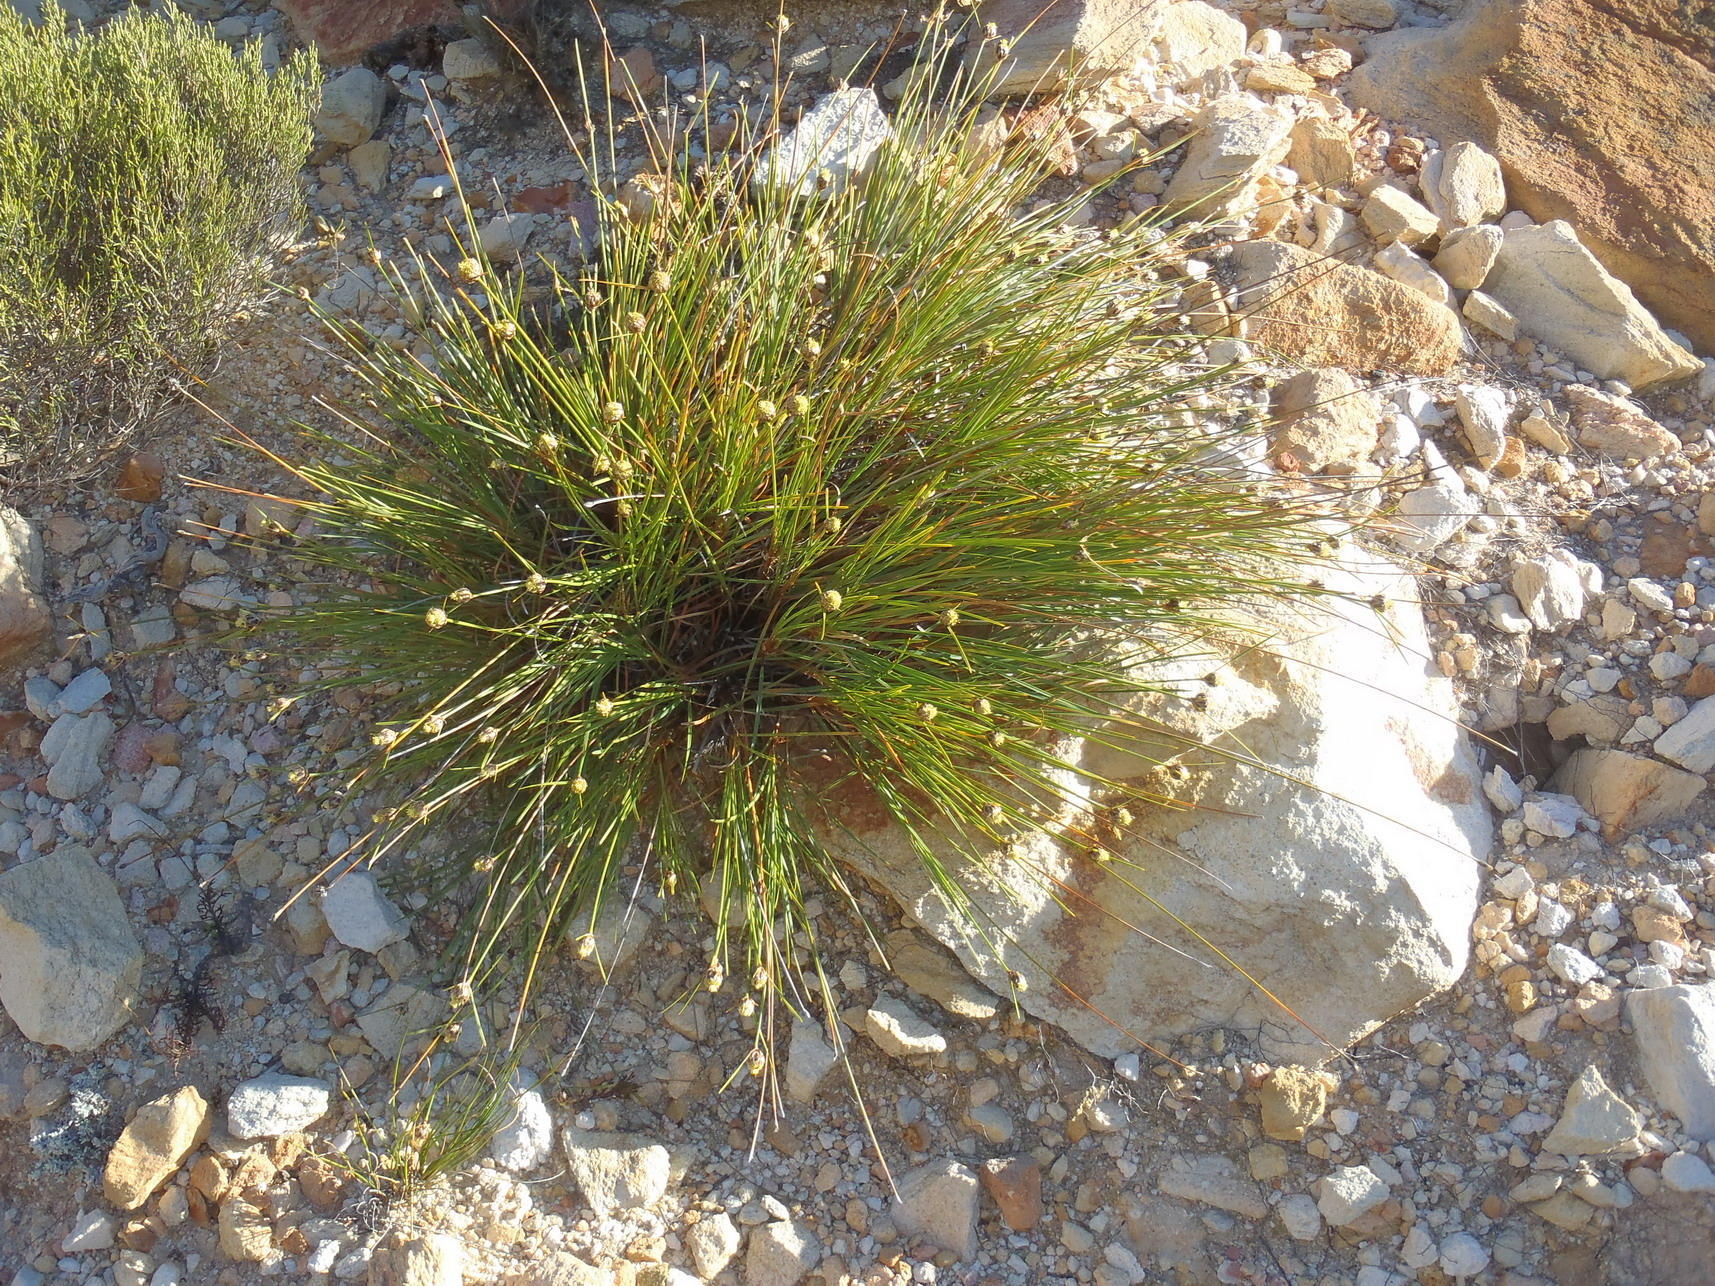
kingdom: Plantae
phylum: Tracheophyta
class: Liliopsida
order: Poales
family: Cyperaceae
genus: Ficinia
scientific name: Ficinia petrophylla
